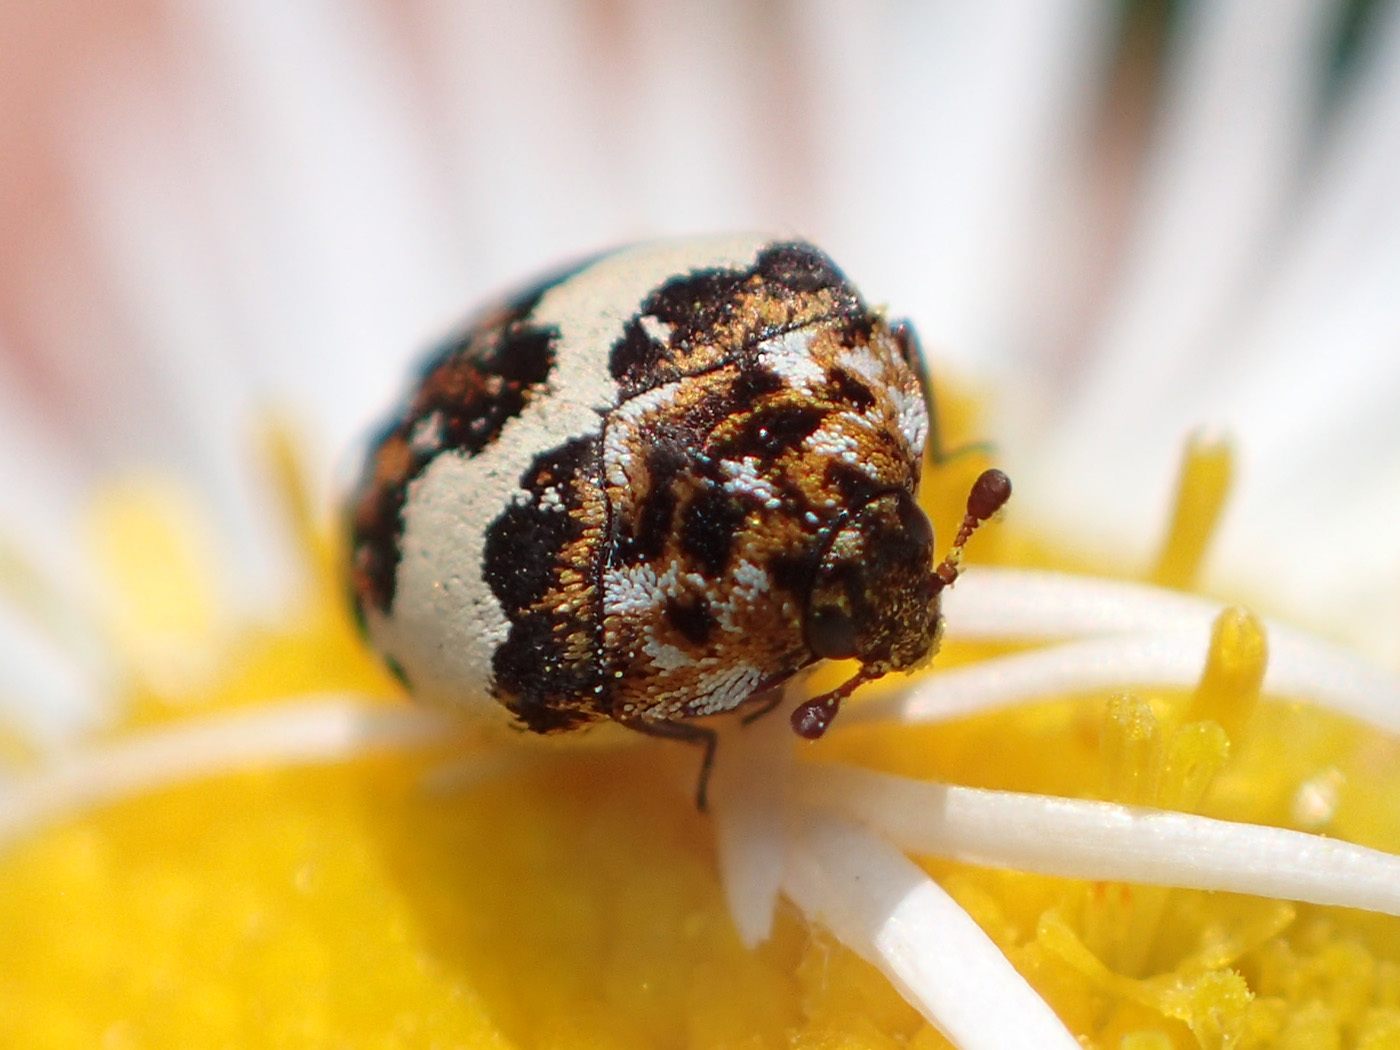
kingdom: Animalia
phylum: Arthropoda
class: Insecta
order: Coleoptera
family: Dermestidae
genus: Anthrenus
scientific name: Anthrenus isabellinus
